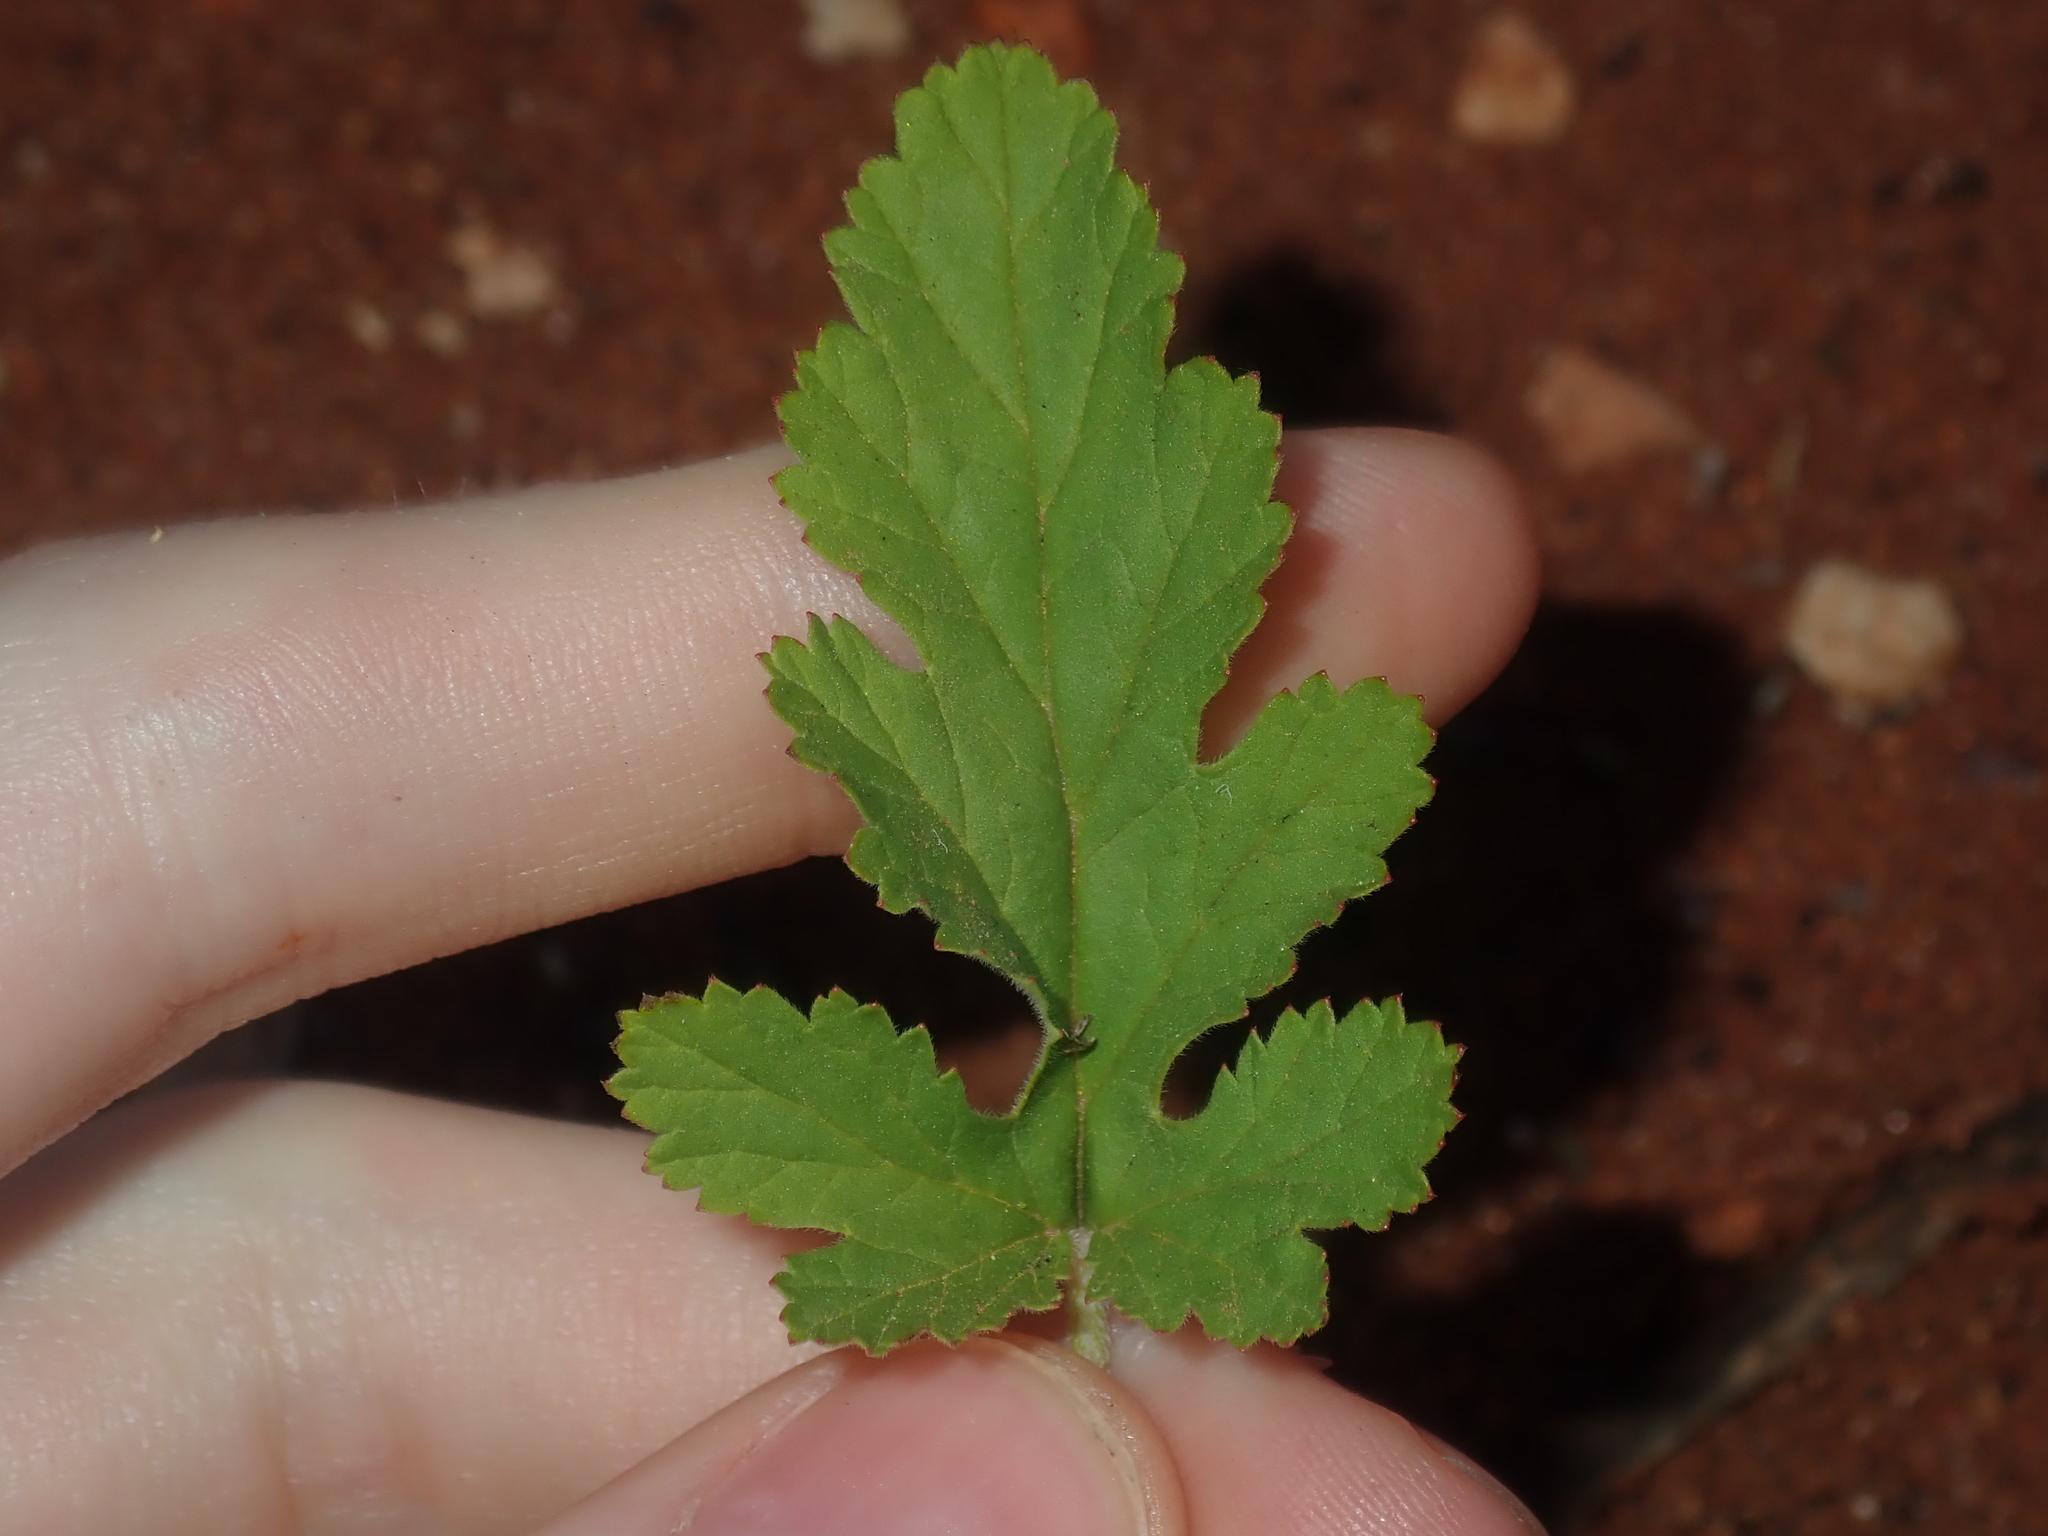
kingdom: Plantae
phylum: Tracheophyta
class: Magnoliopsida
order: Geraniales
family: Geraniaceae
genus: Erodium
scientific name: Erodium cygnorum
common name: Western stork's-bill
